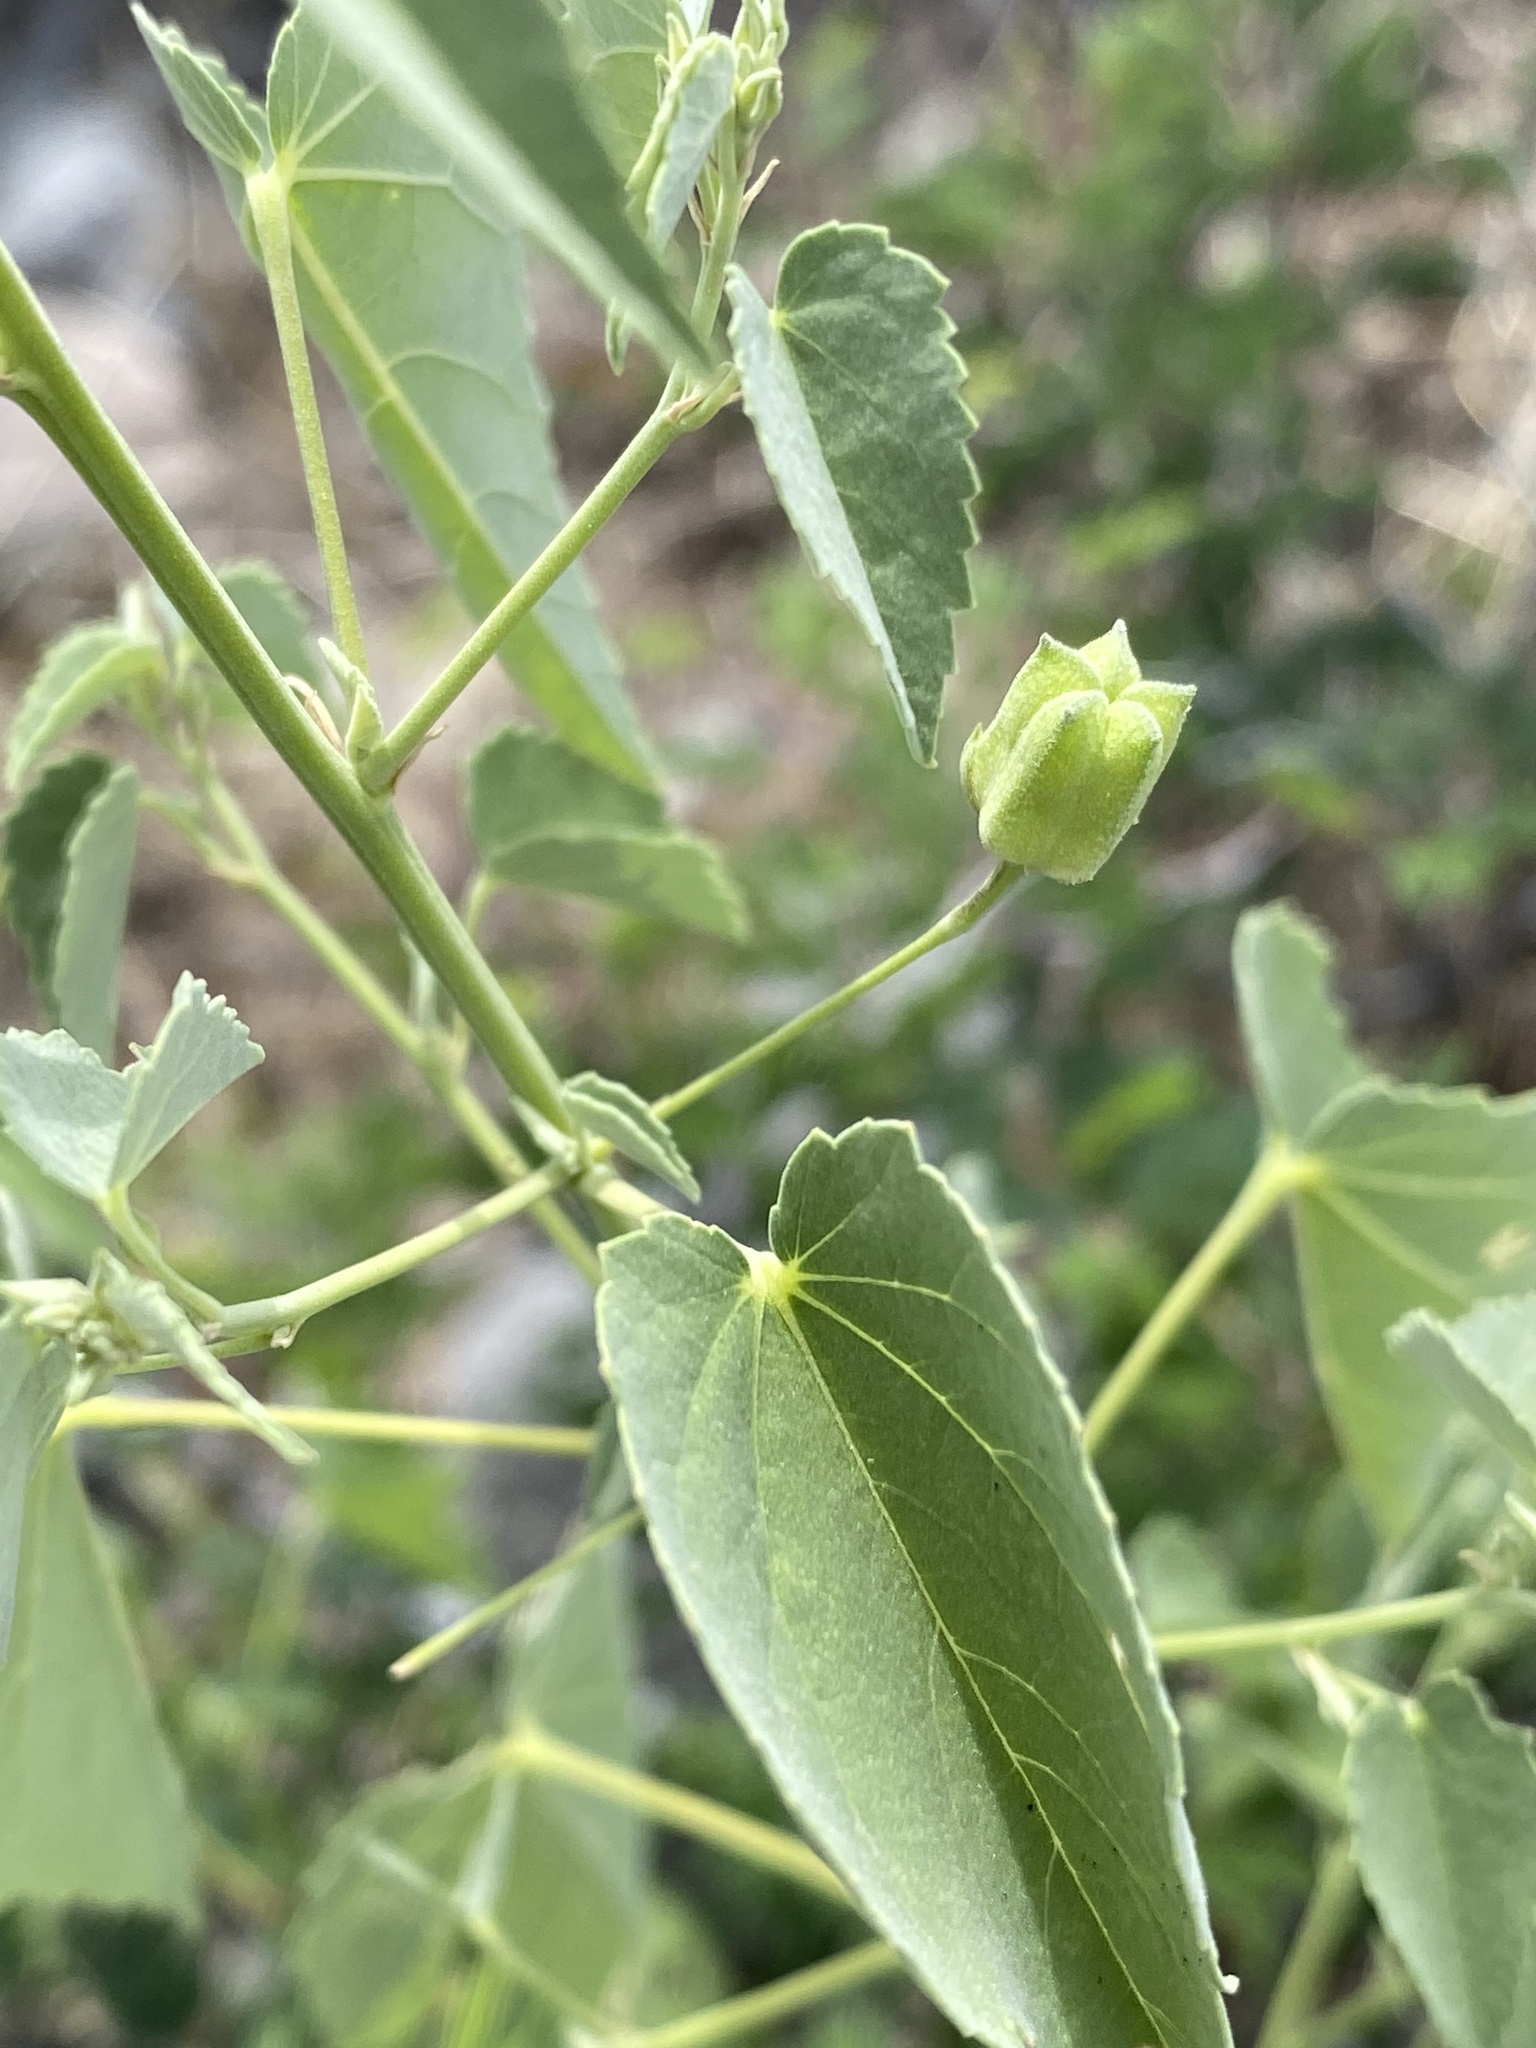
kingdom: Plantae
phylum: Tracheophyta
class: Magnoliopsida
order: Malvales
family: Malvaceae
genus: Abutilon
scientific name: Abutilon incanum
